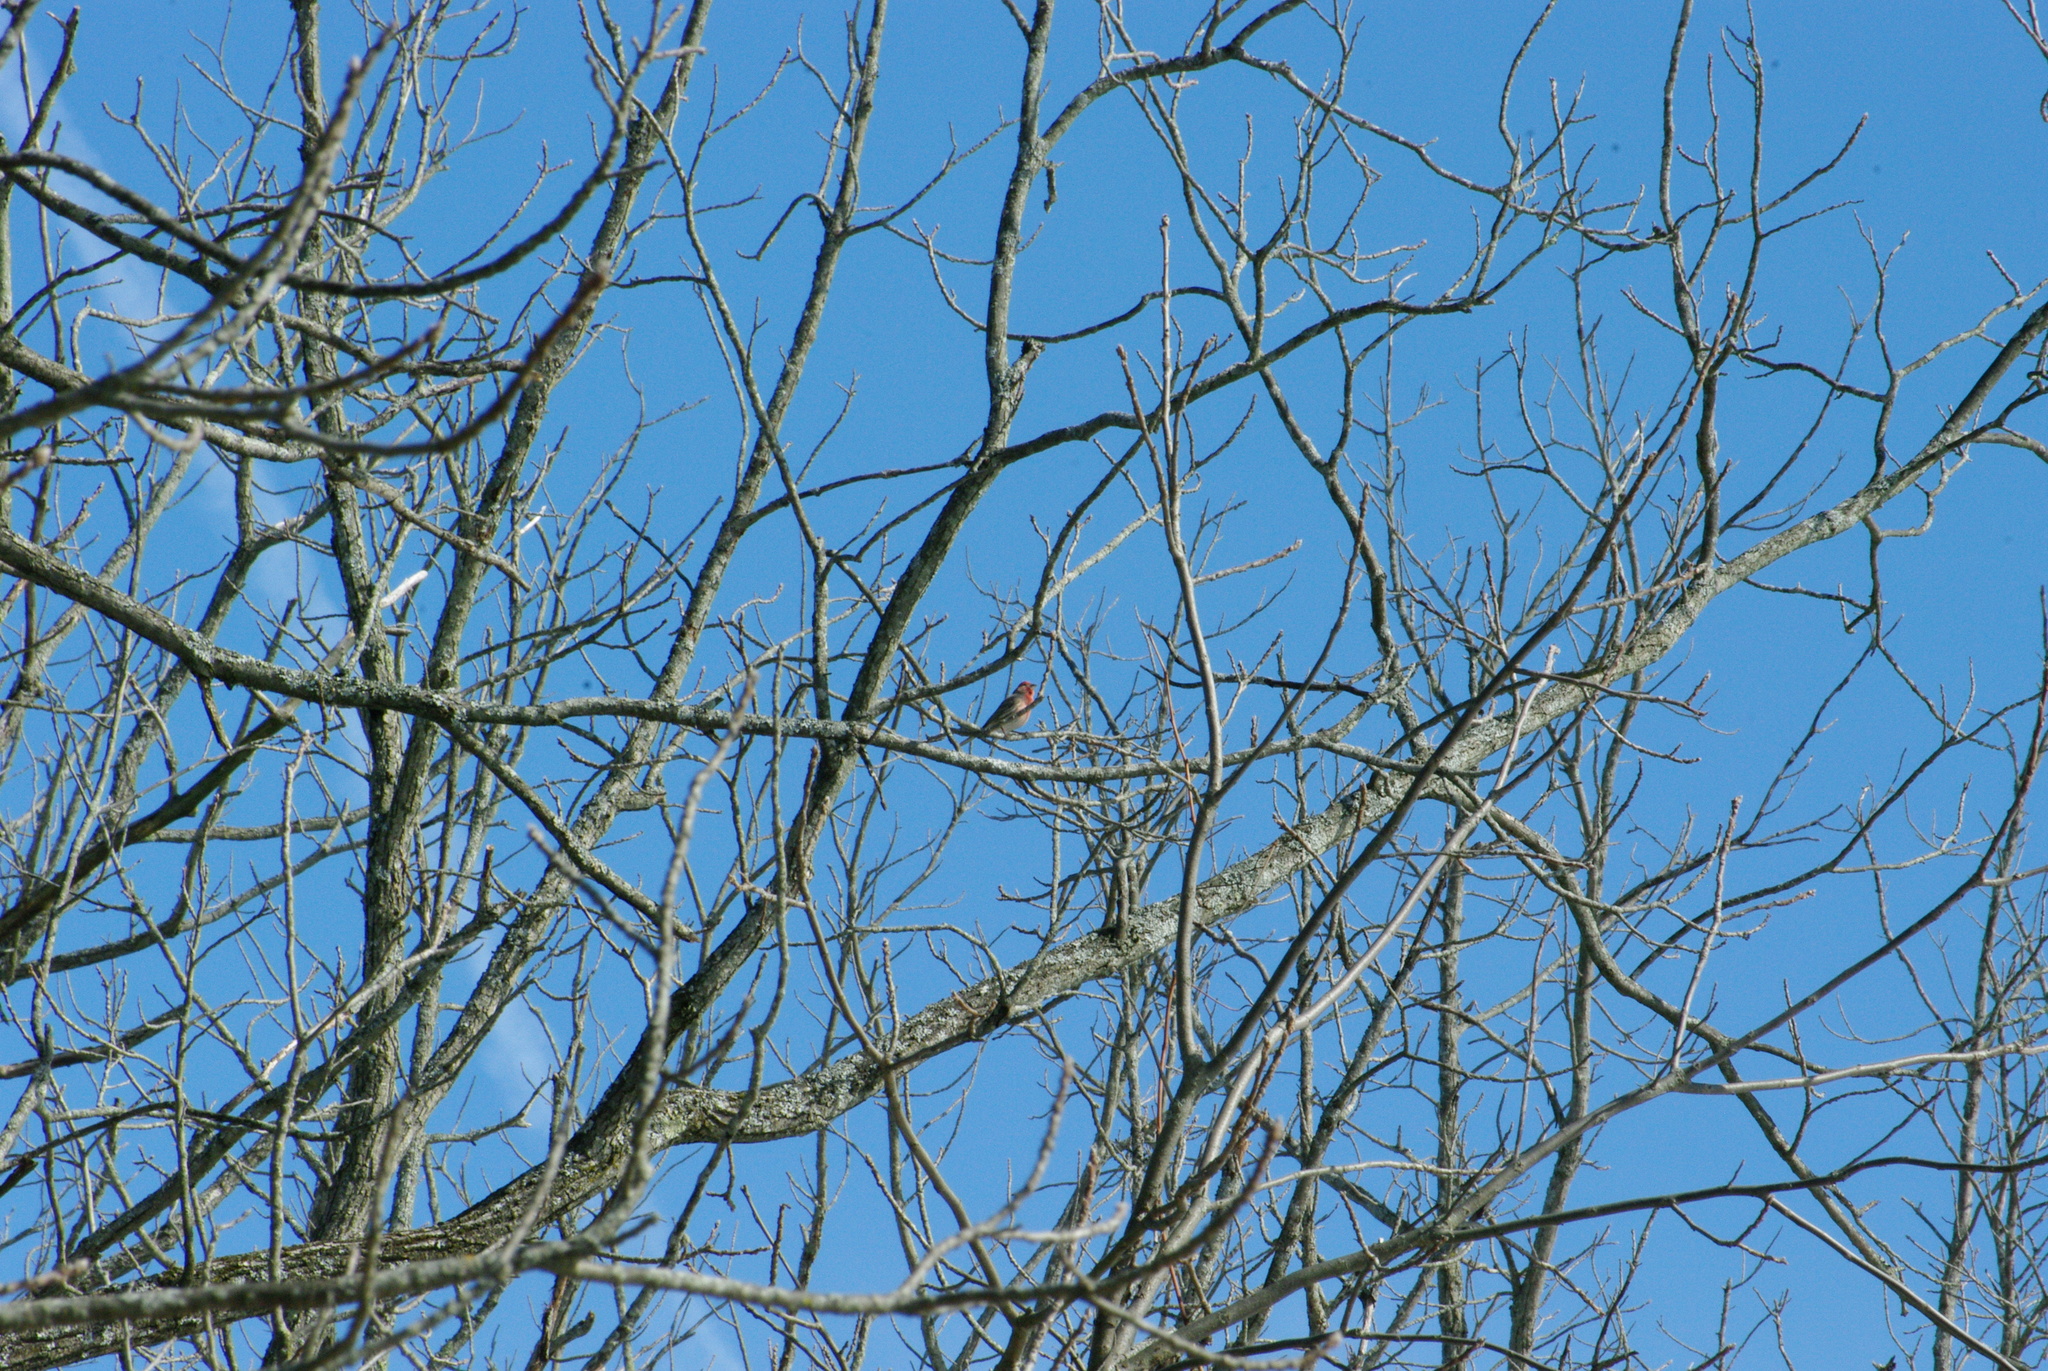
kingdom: Animalia
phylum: Chordata
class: Aves
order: Passeriformes
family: Fringillidae
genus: Haemorhous
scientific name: Haemorhous mexicanus
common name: House finch
